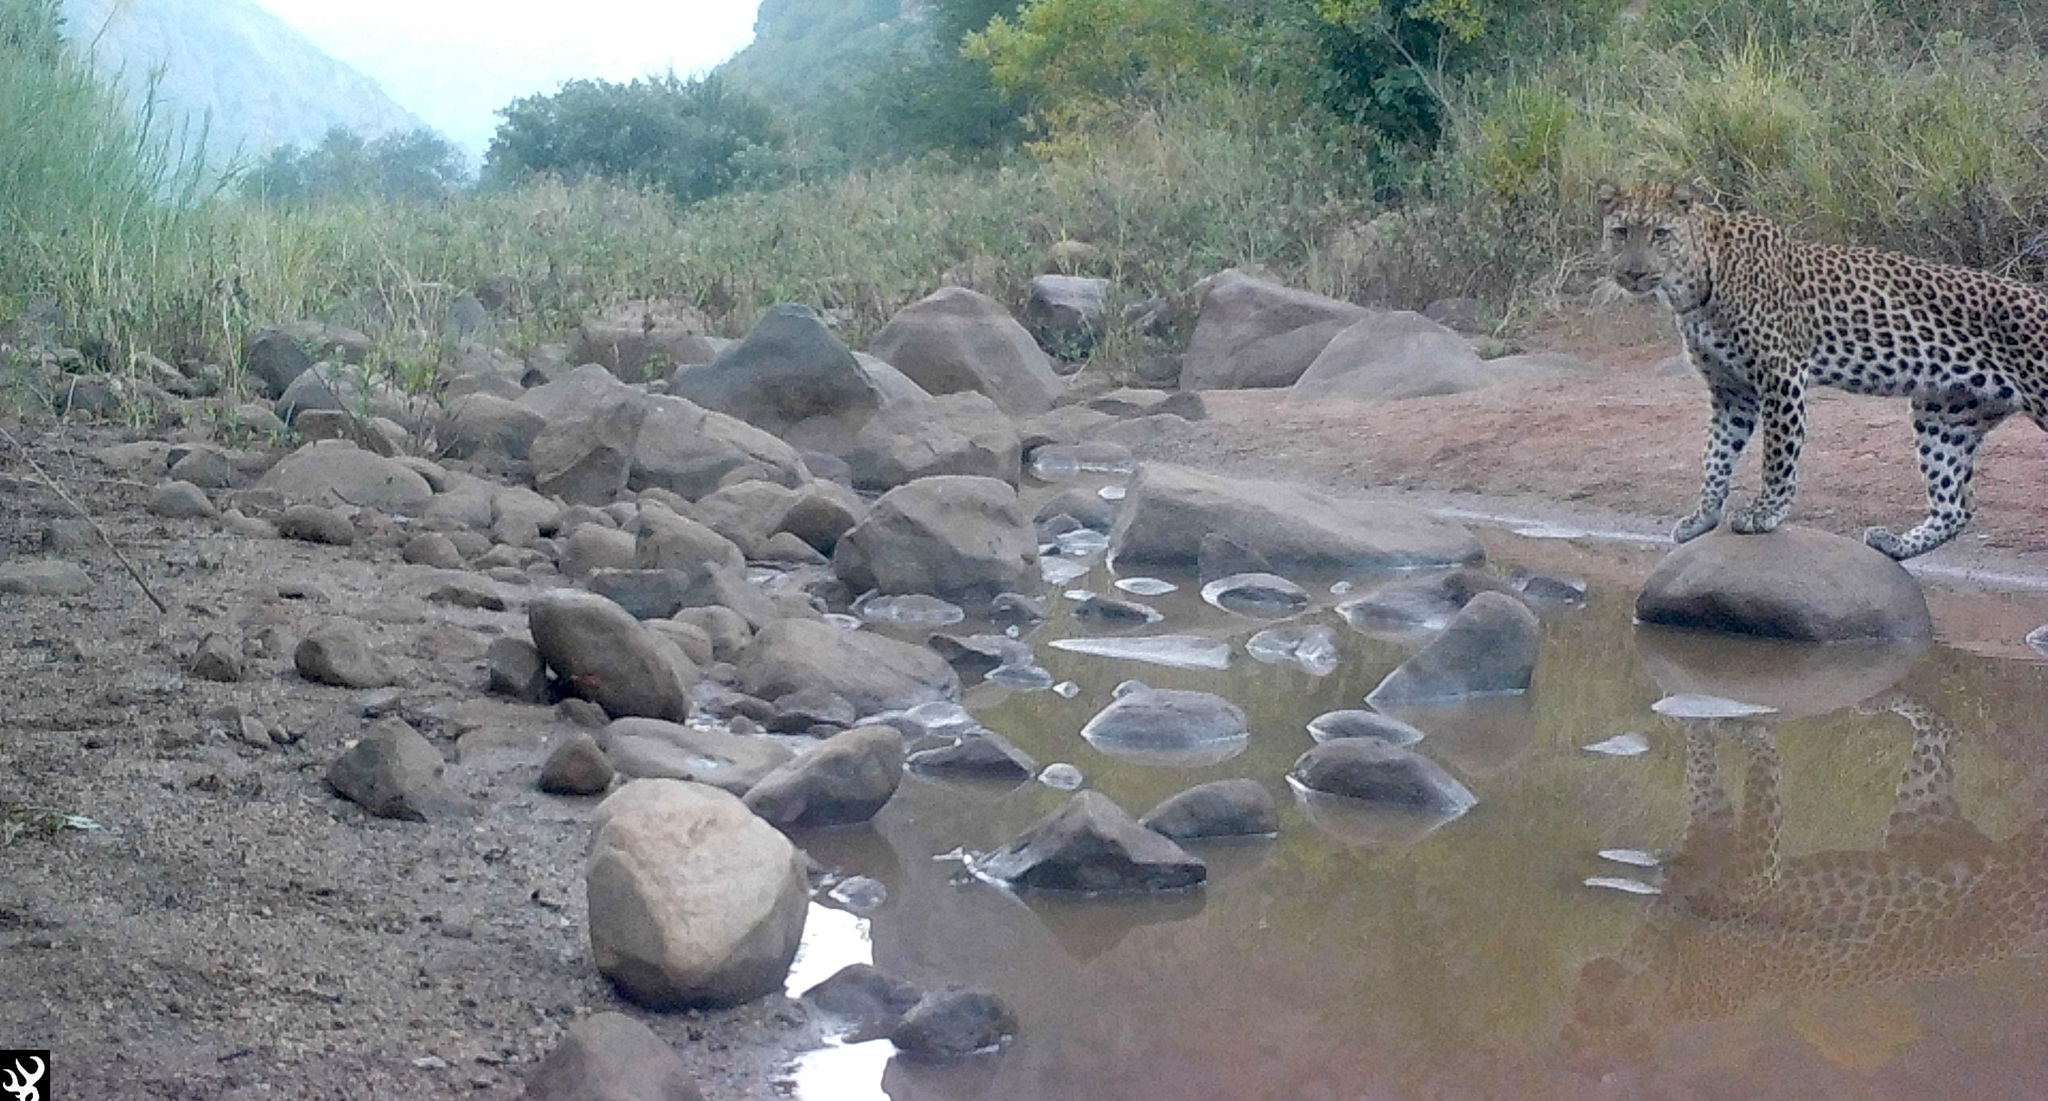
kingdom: Animalia
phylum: Chordata
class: Mammalia
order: Carnivora
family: Felidae
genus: Panthera
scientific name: Panthera pardus
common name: Leopard
